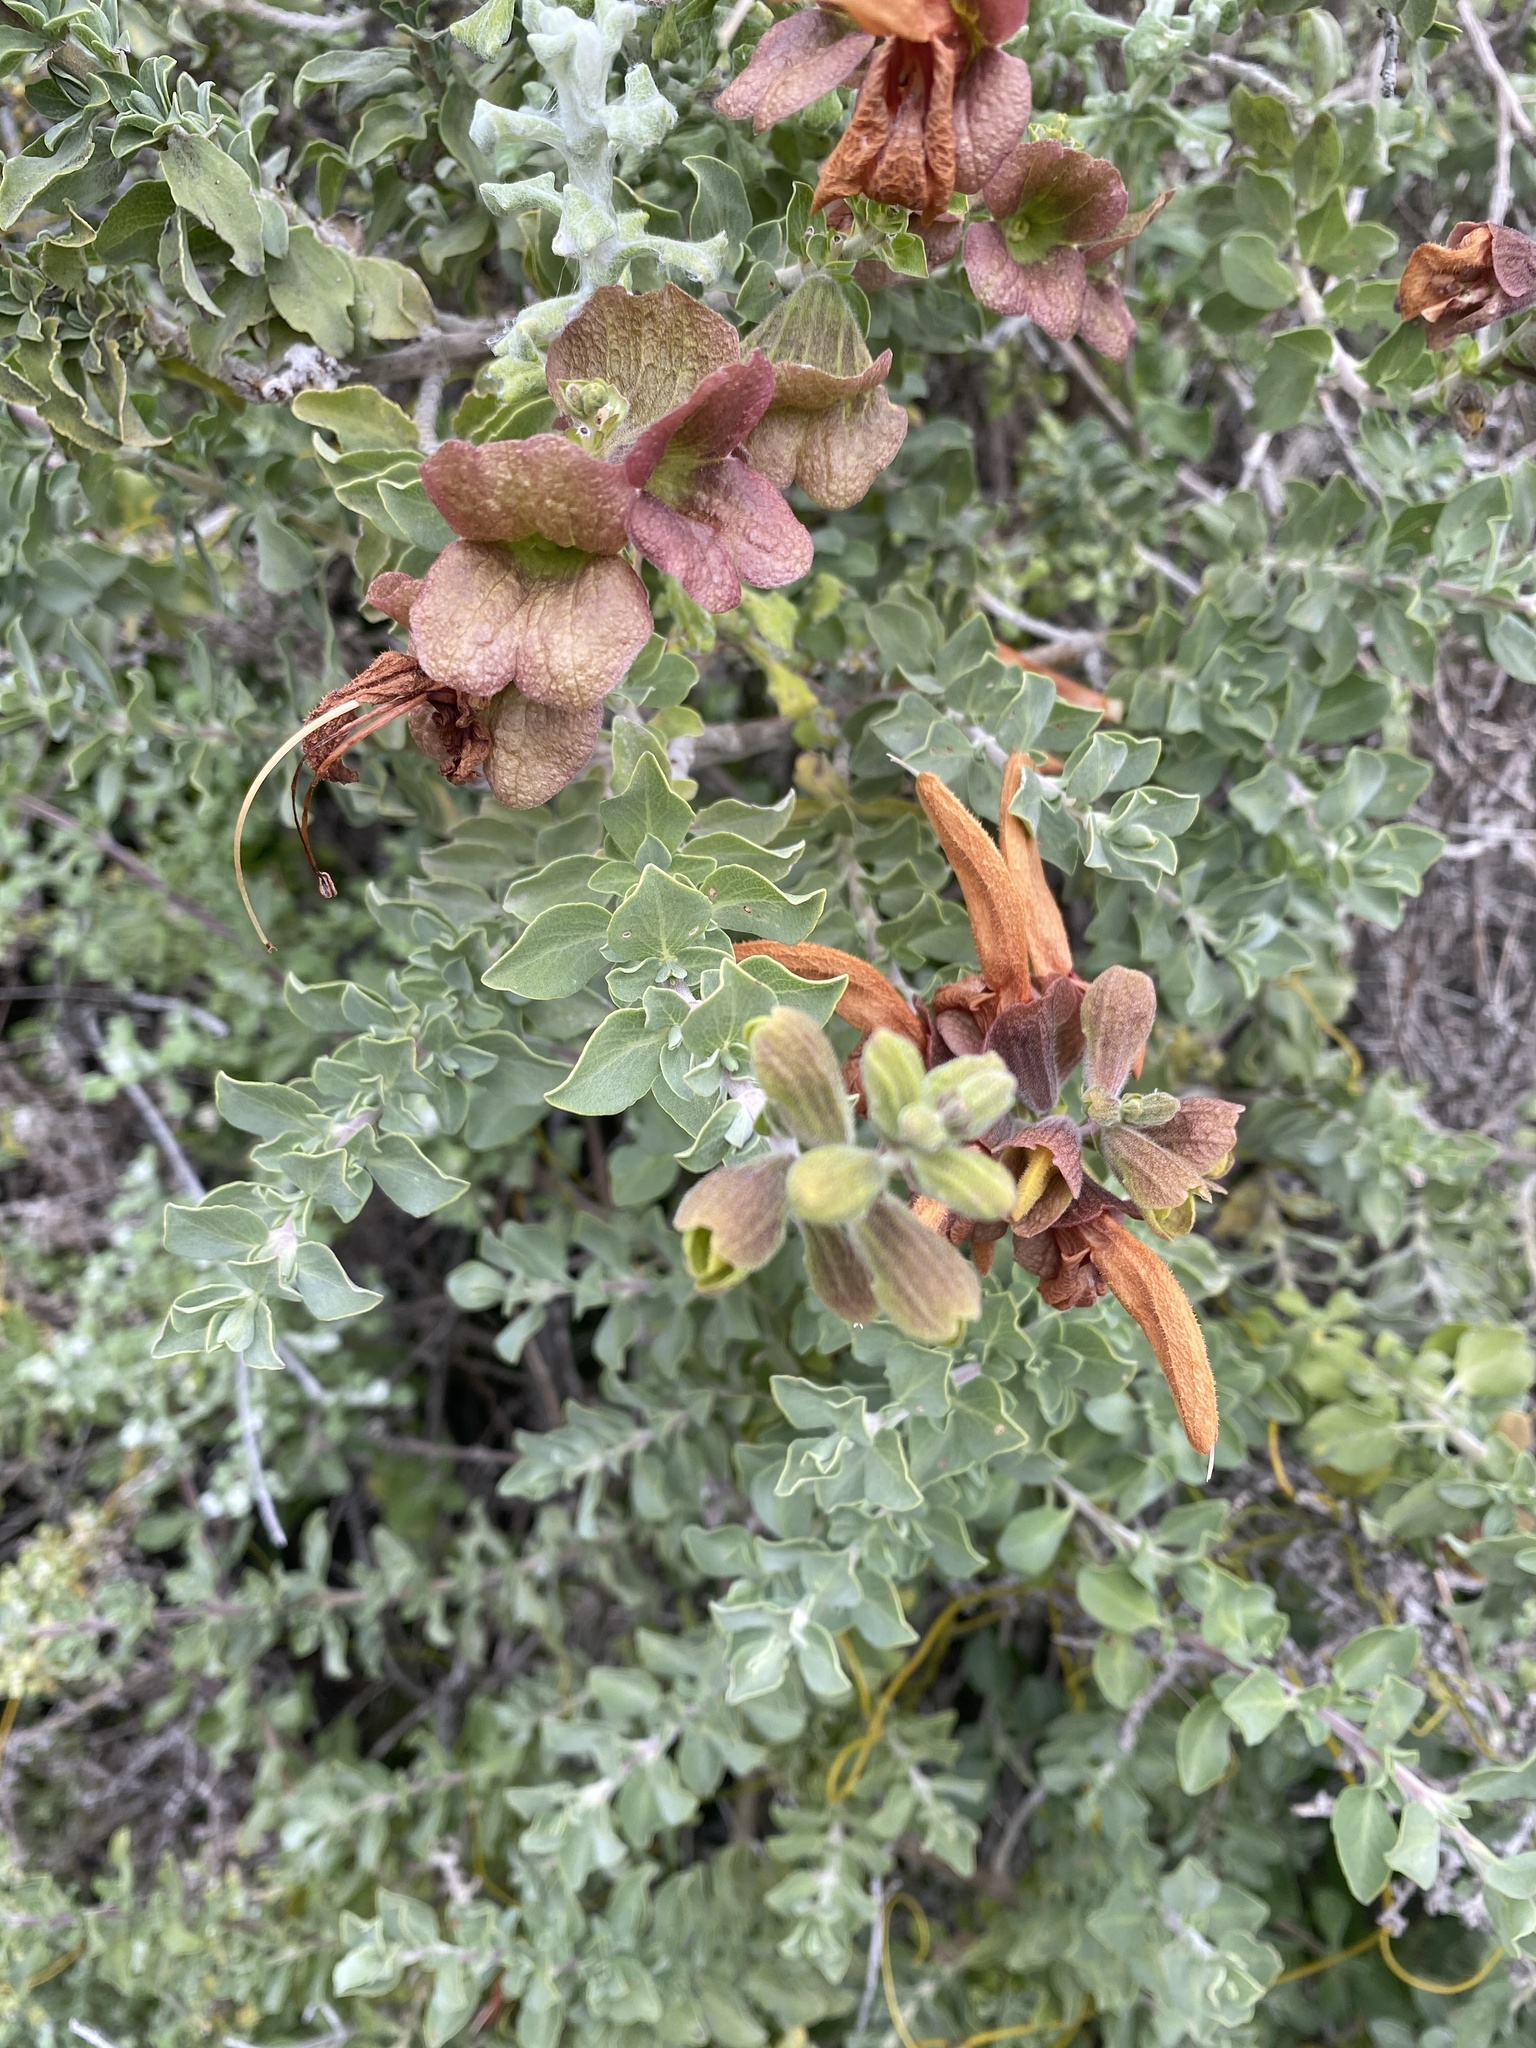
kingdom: Plantae
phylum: Tracheophyta
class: Magnoliopsida
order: Lamiales
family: Lamiaceae
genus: Salvia
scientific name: Salvia aurea
